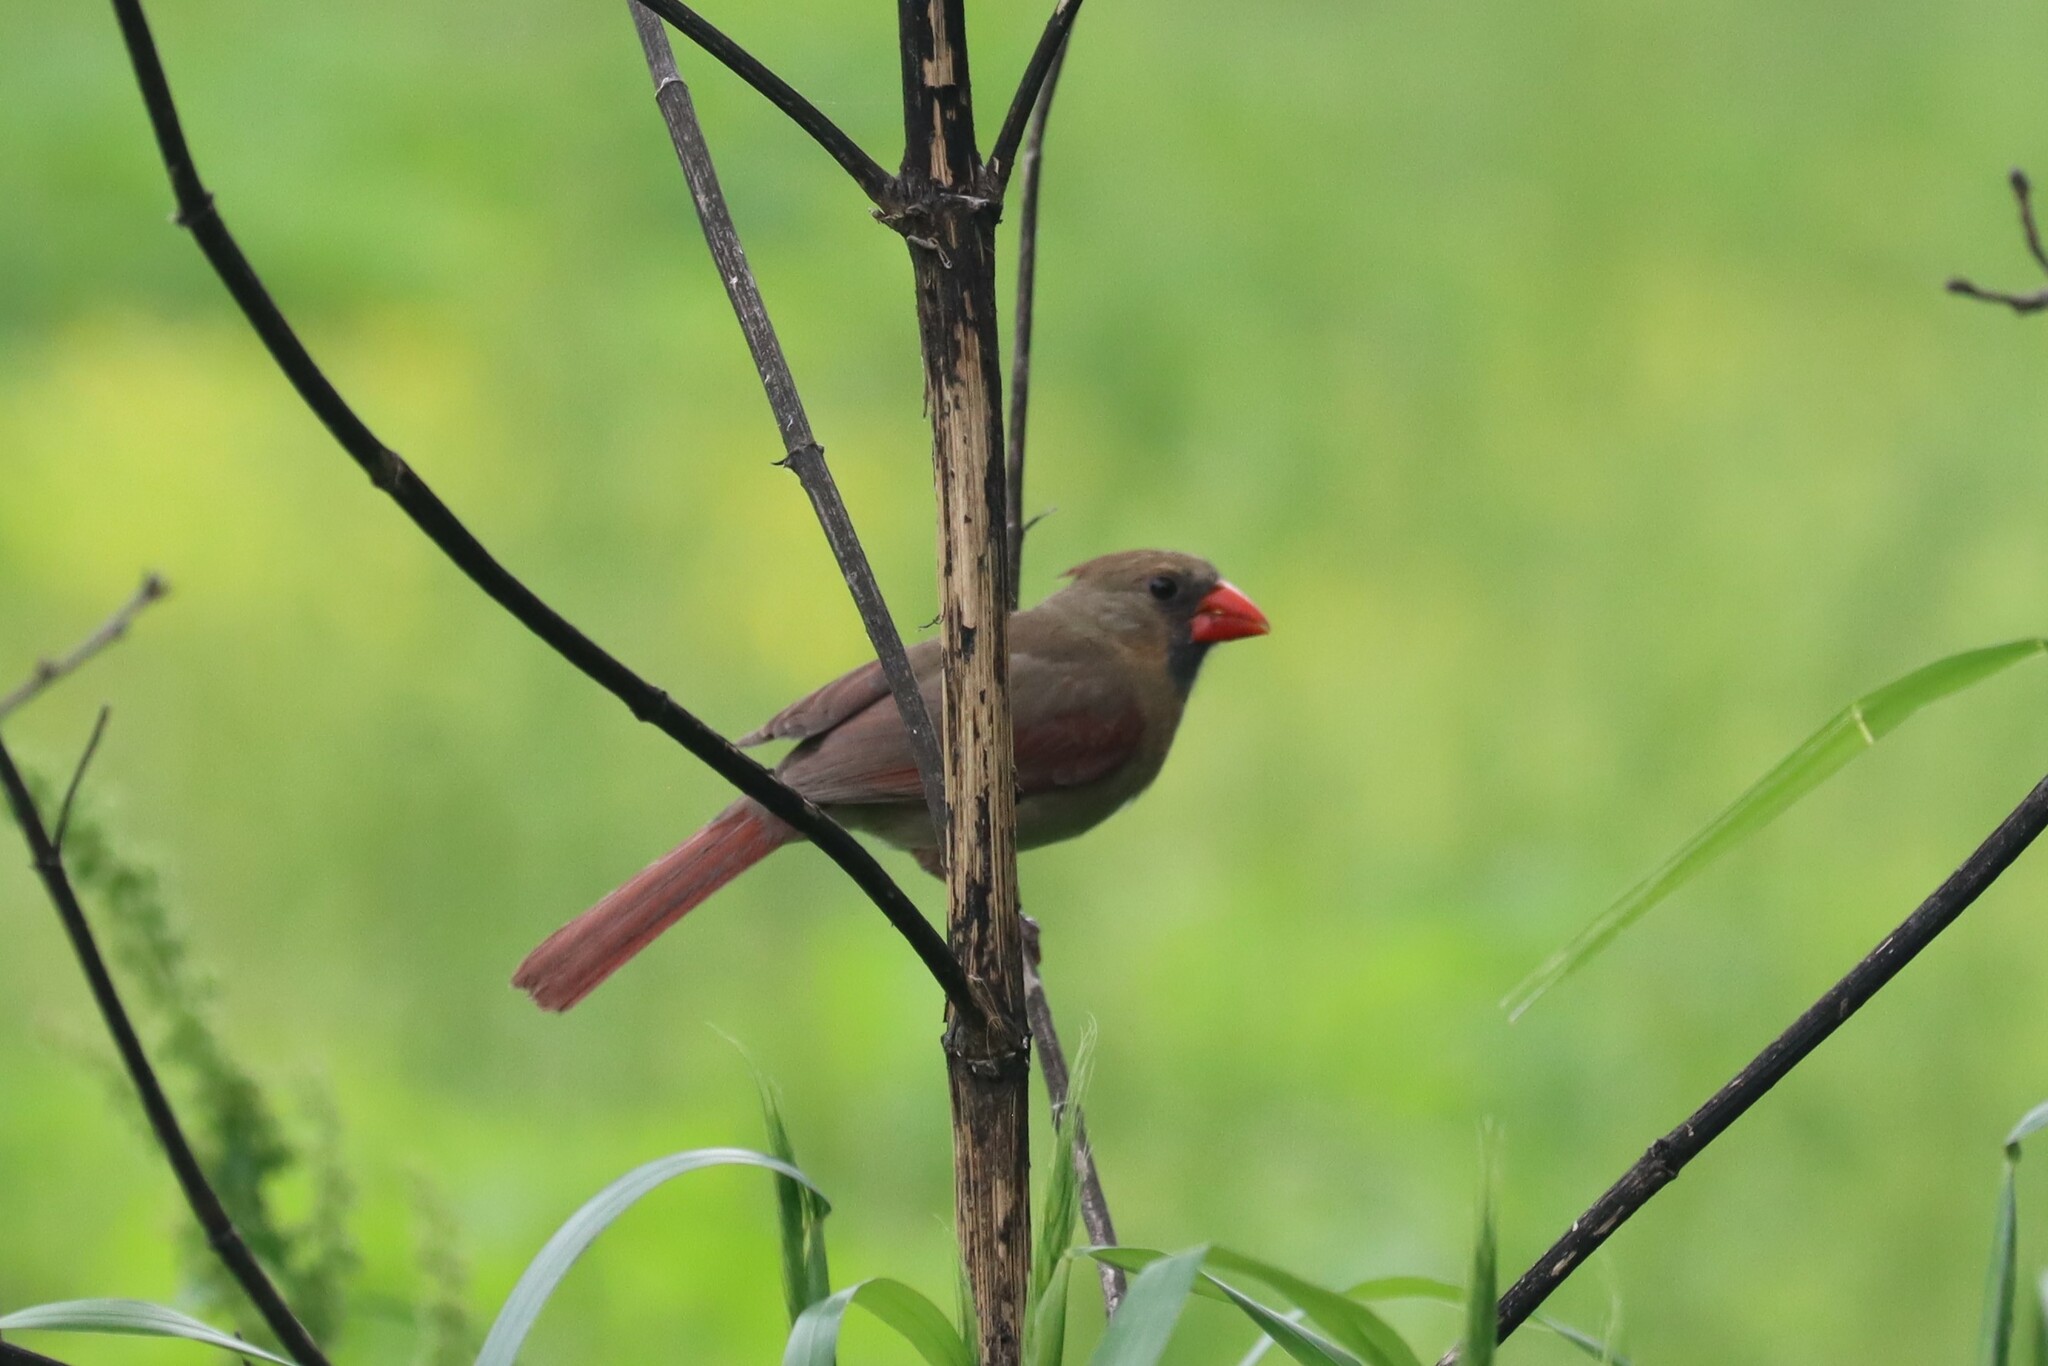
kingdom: Animalia
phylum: Chordata
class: Aves
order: Passeriformes
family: Cardinalidae
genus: Cardinalis
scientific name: Cardinalis cardinalis
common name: Northern cardinal
